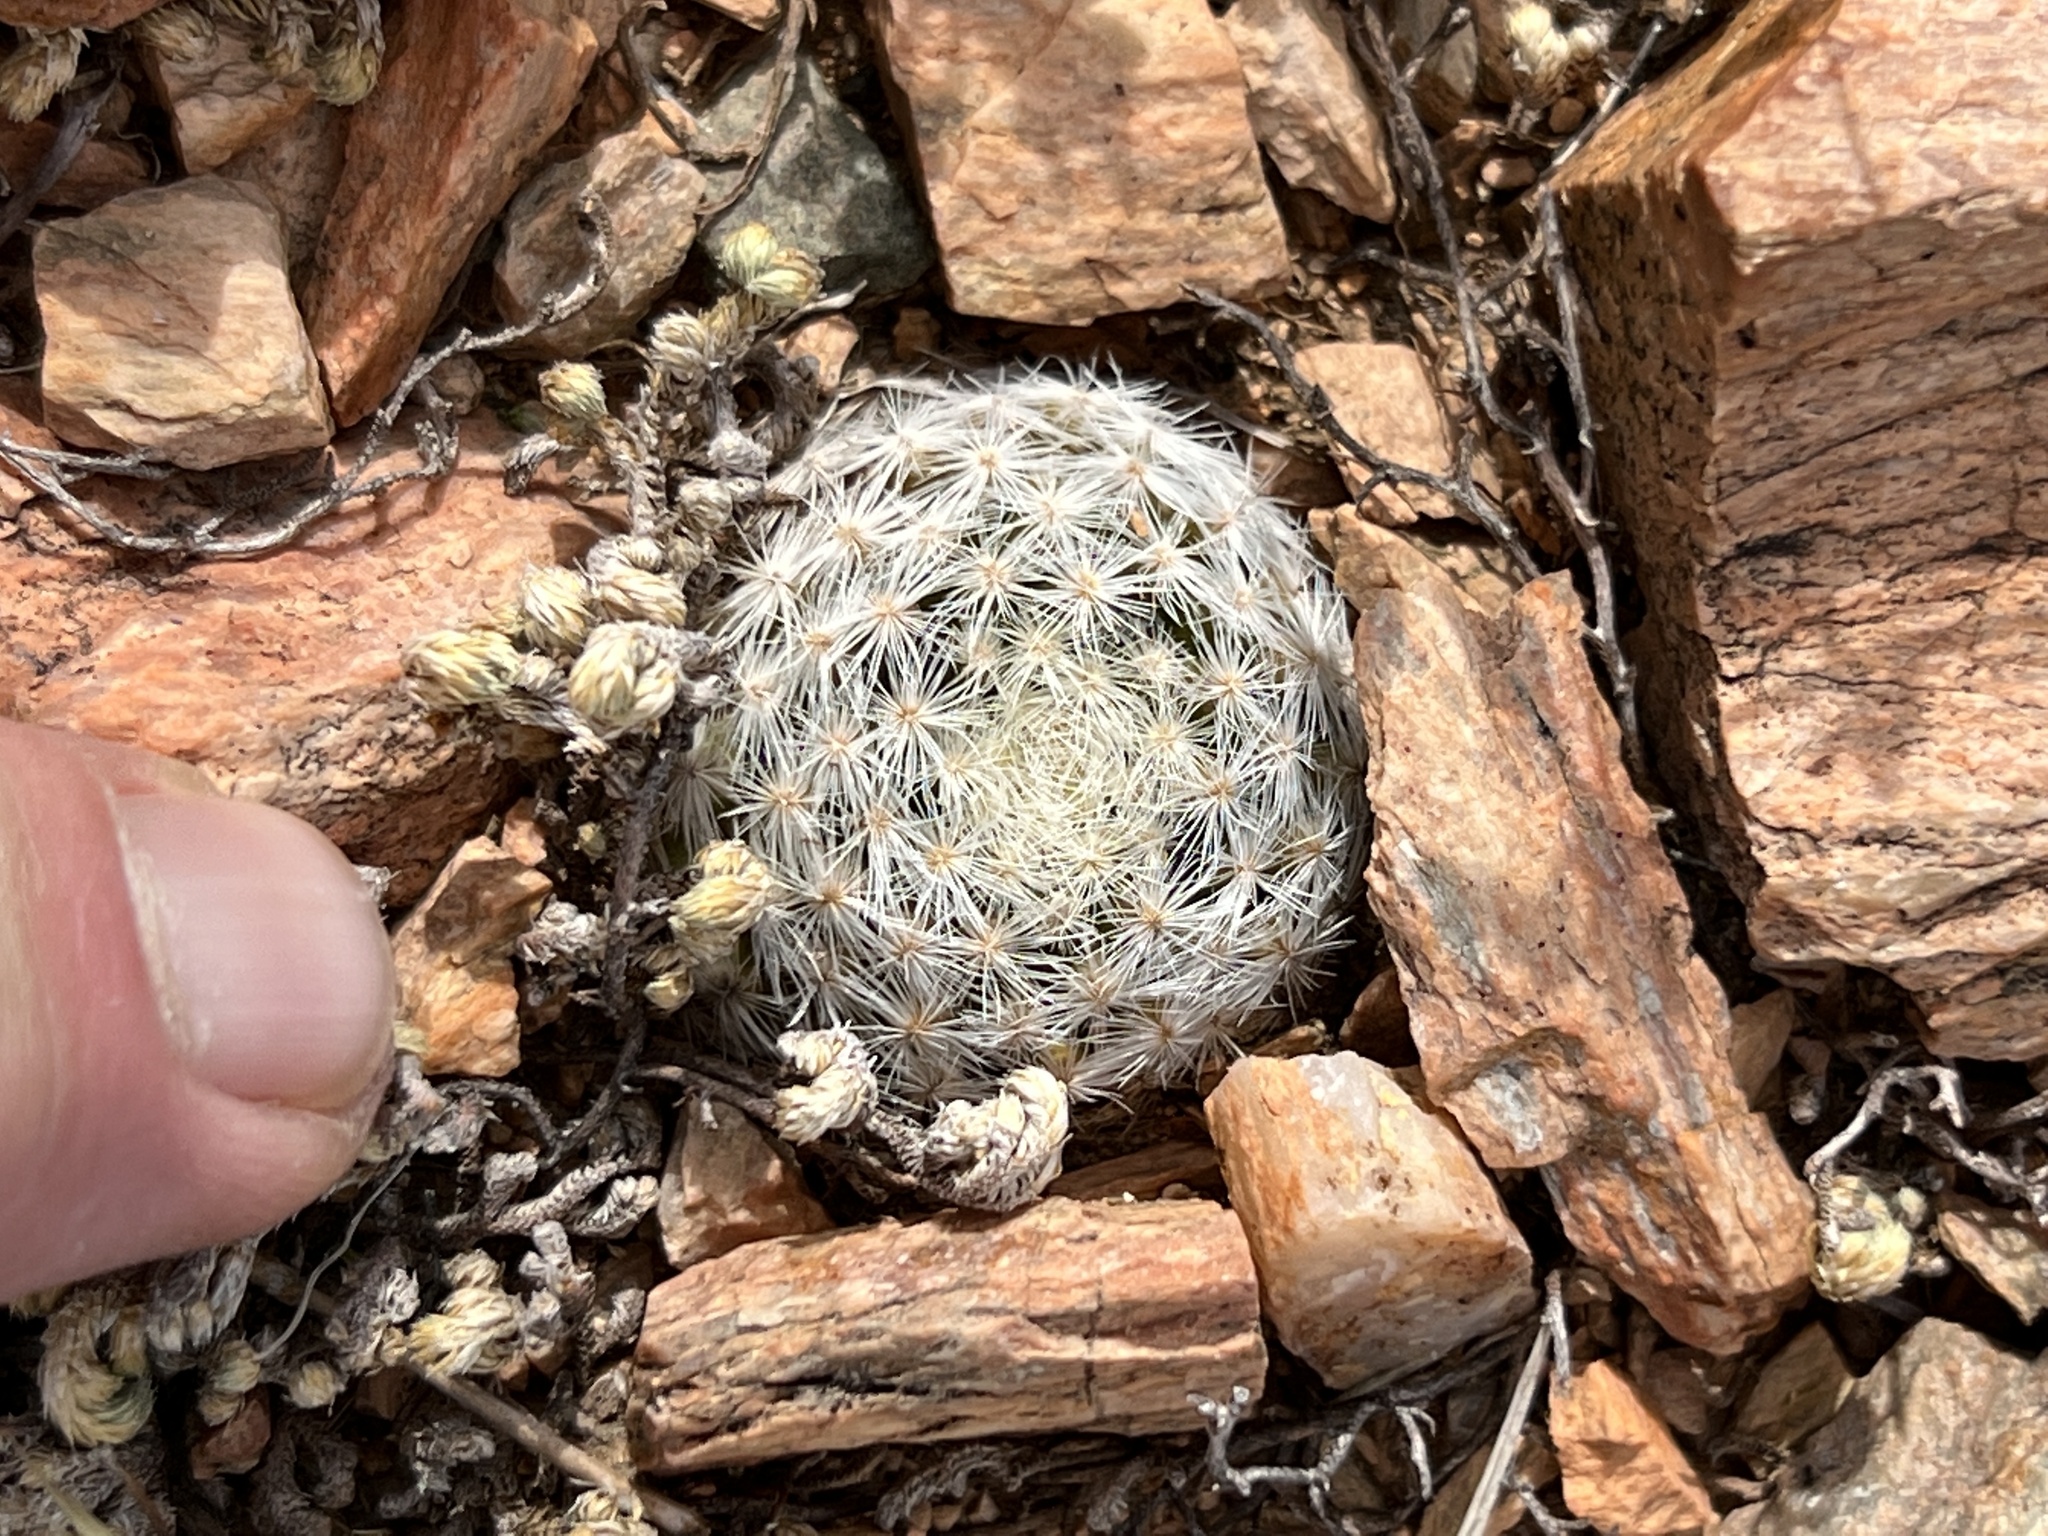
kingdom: Plantae
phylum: Tracheophyta
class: Magnoliopsida
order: Caryophyllales
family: Cactaceae
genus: Mammillaria
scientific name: Mammillaria lasiacantha
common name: Lace-spine nipple cactus
